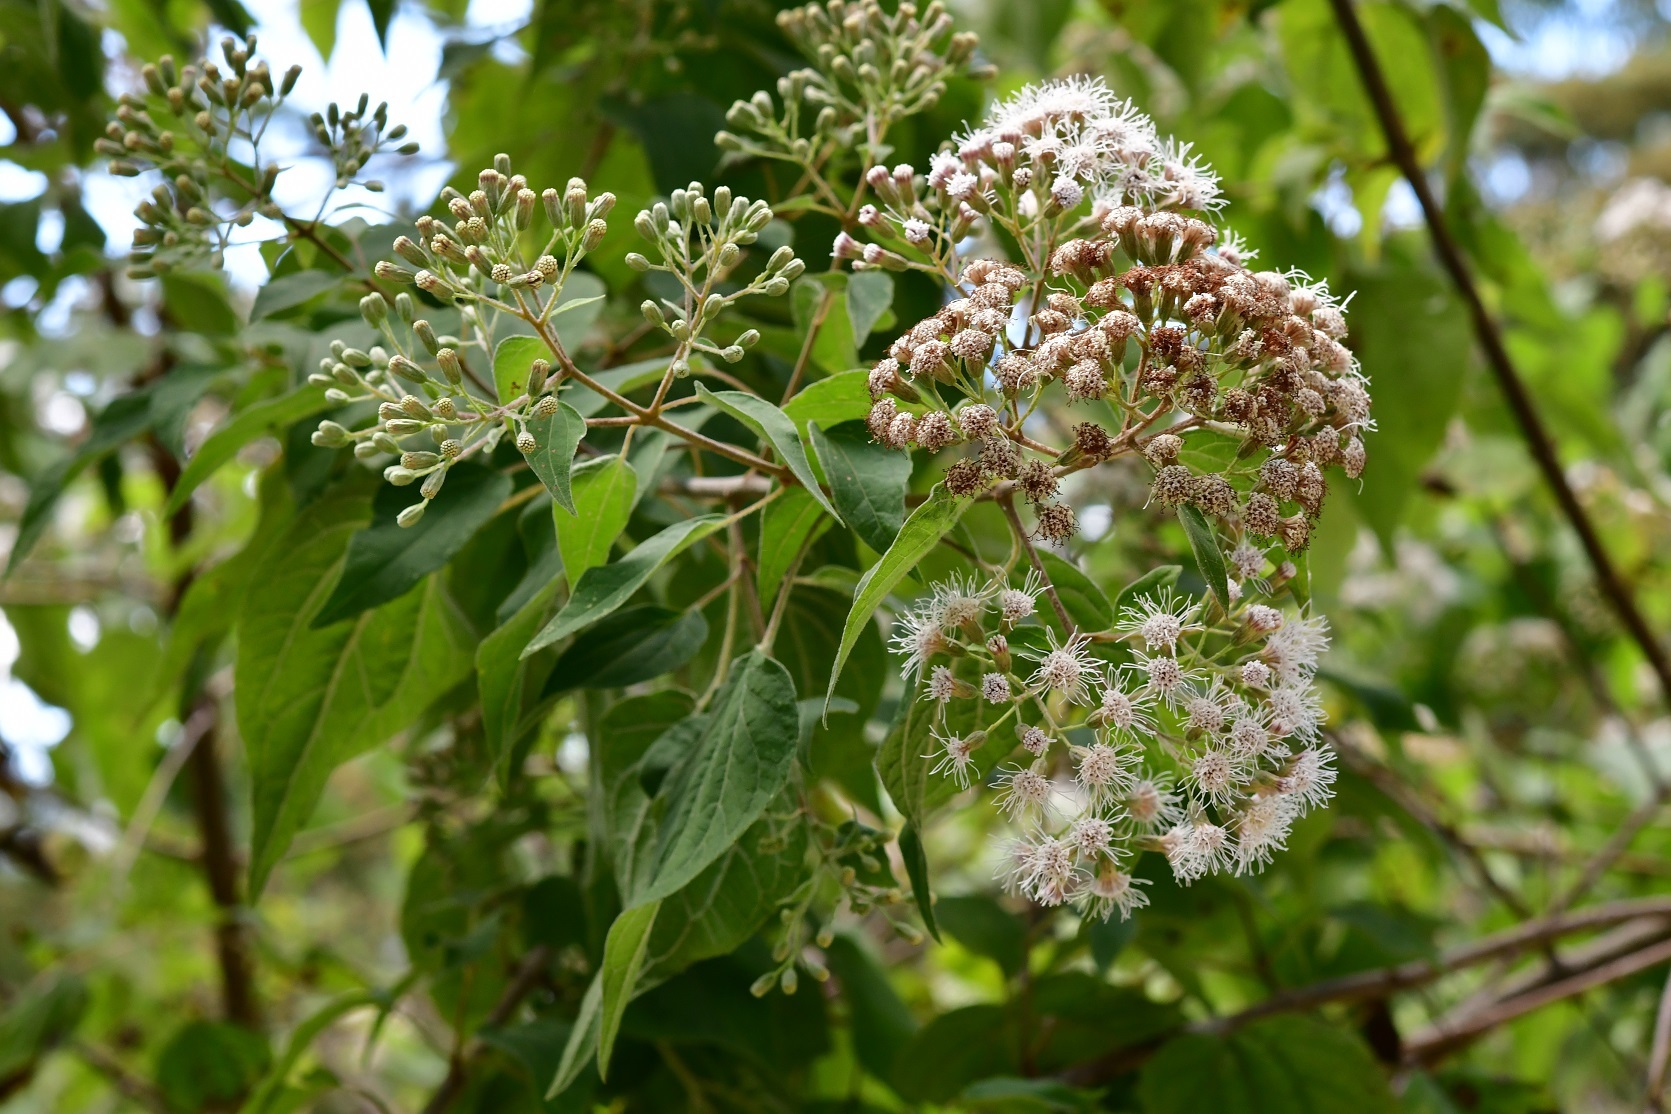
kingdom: Plantae
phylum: Tracheophyta
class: Magnoliopsida
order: Asterales
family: Asteraceae
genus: Chromolaena
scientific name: Chromolaena collina
